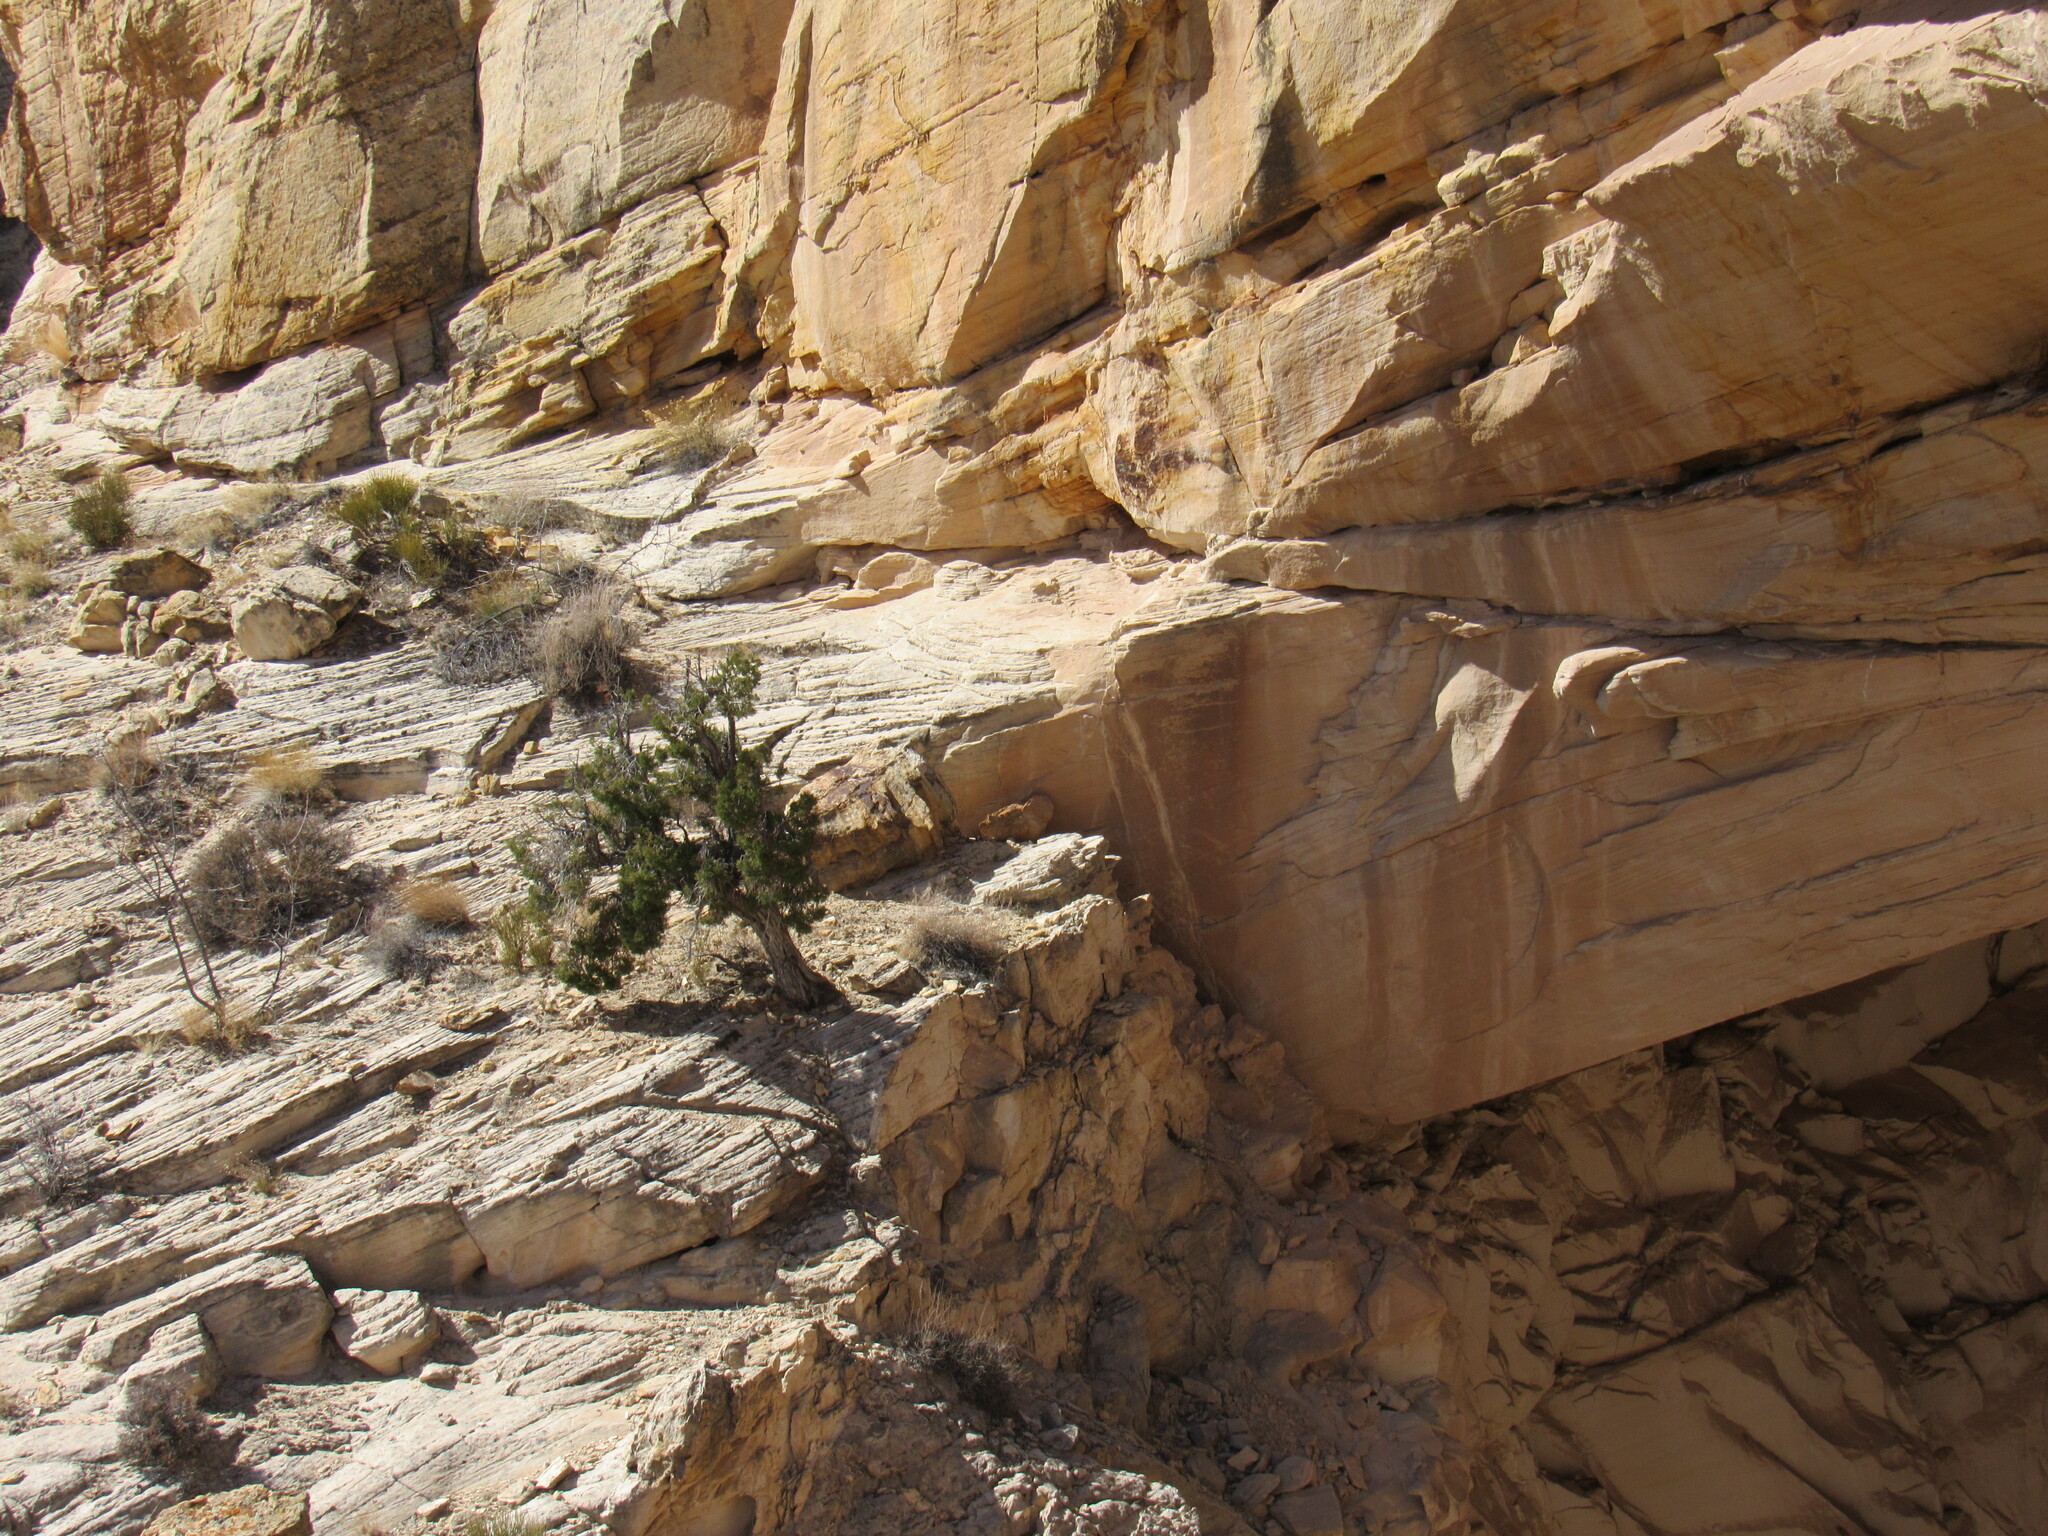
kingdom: Plantae
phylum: Tracheophyta
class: Pinopsida
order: Pinales
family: Cupressaceae
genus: Juniperus
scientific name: Juniperus osteosperma
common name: Utah juniper
